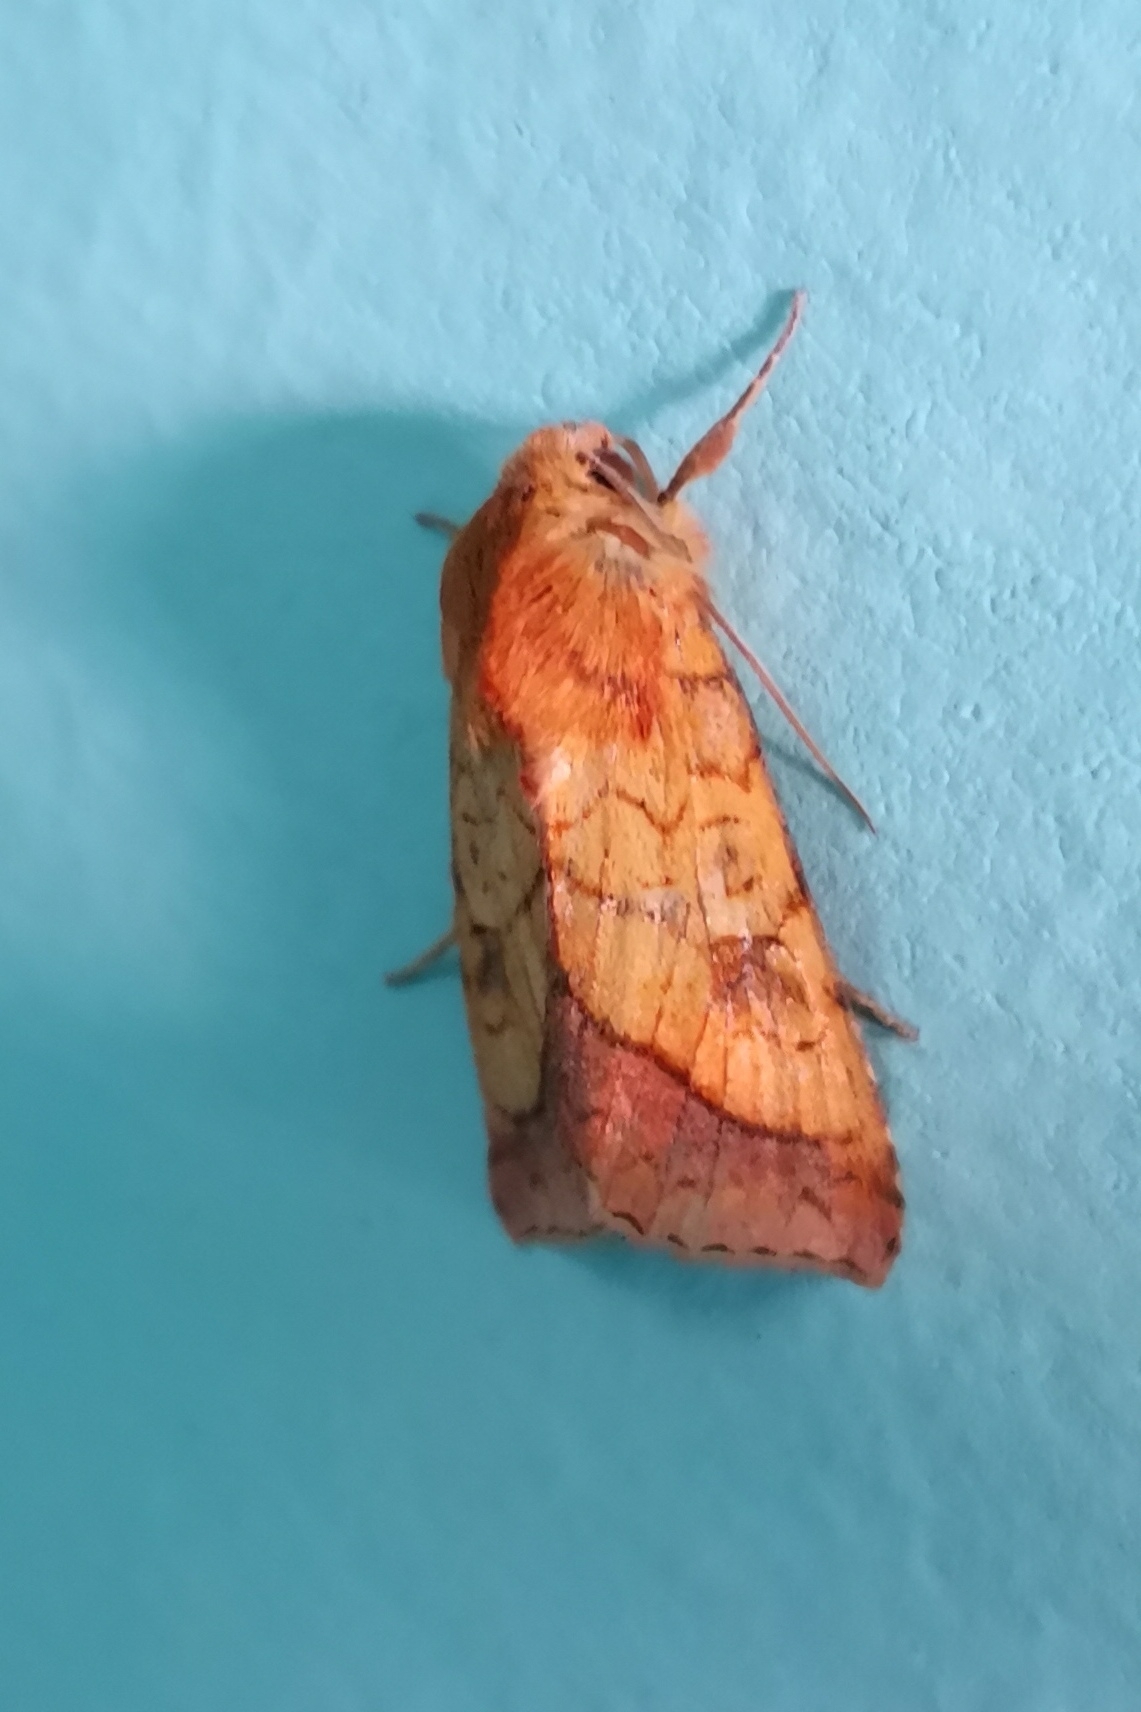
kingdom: Animalia
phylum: Arthropoda
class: Insecta
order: Lepidoptera
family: Noctuidae
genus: Pyrrhia
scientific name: Pyrrhia umbra
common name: Bordered sallow
